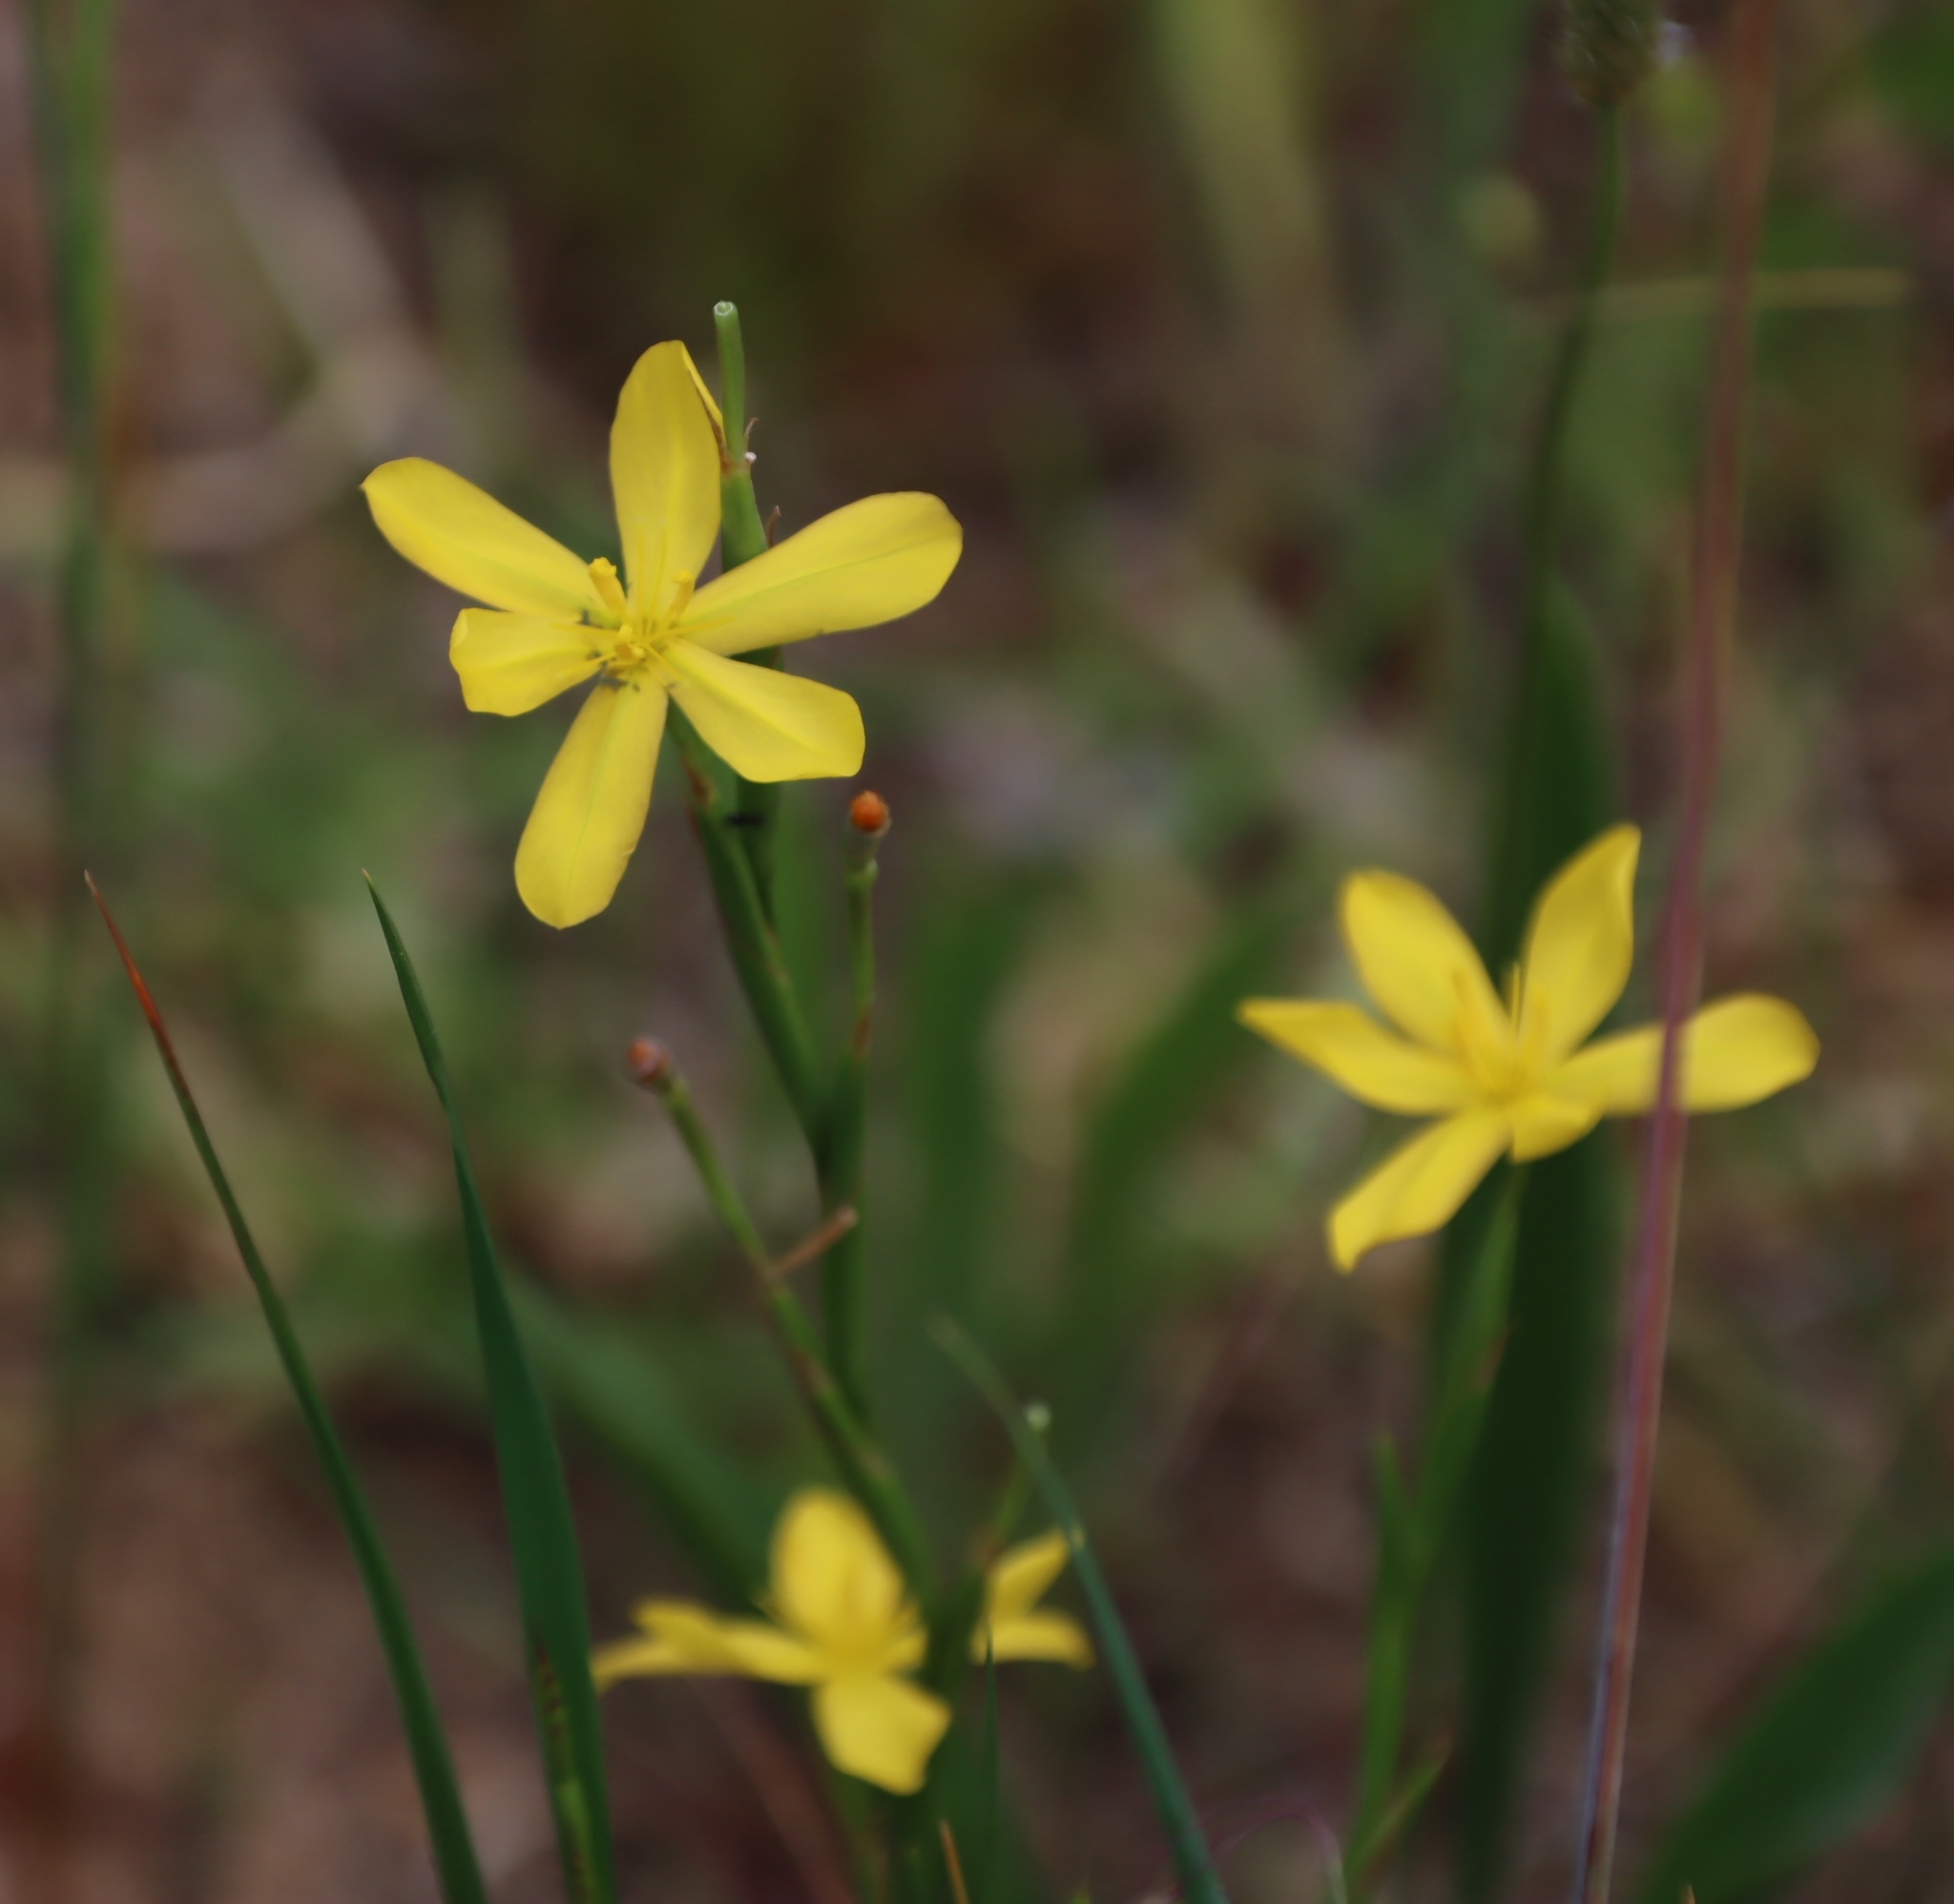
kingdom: Plantae
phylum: Tracheophyta
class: Liliopsida
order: Asparagales
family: Iridaceae
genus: Moraea
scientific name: Moraea lewisiae
